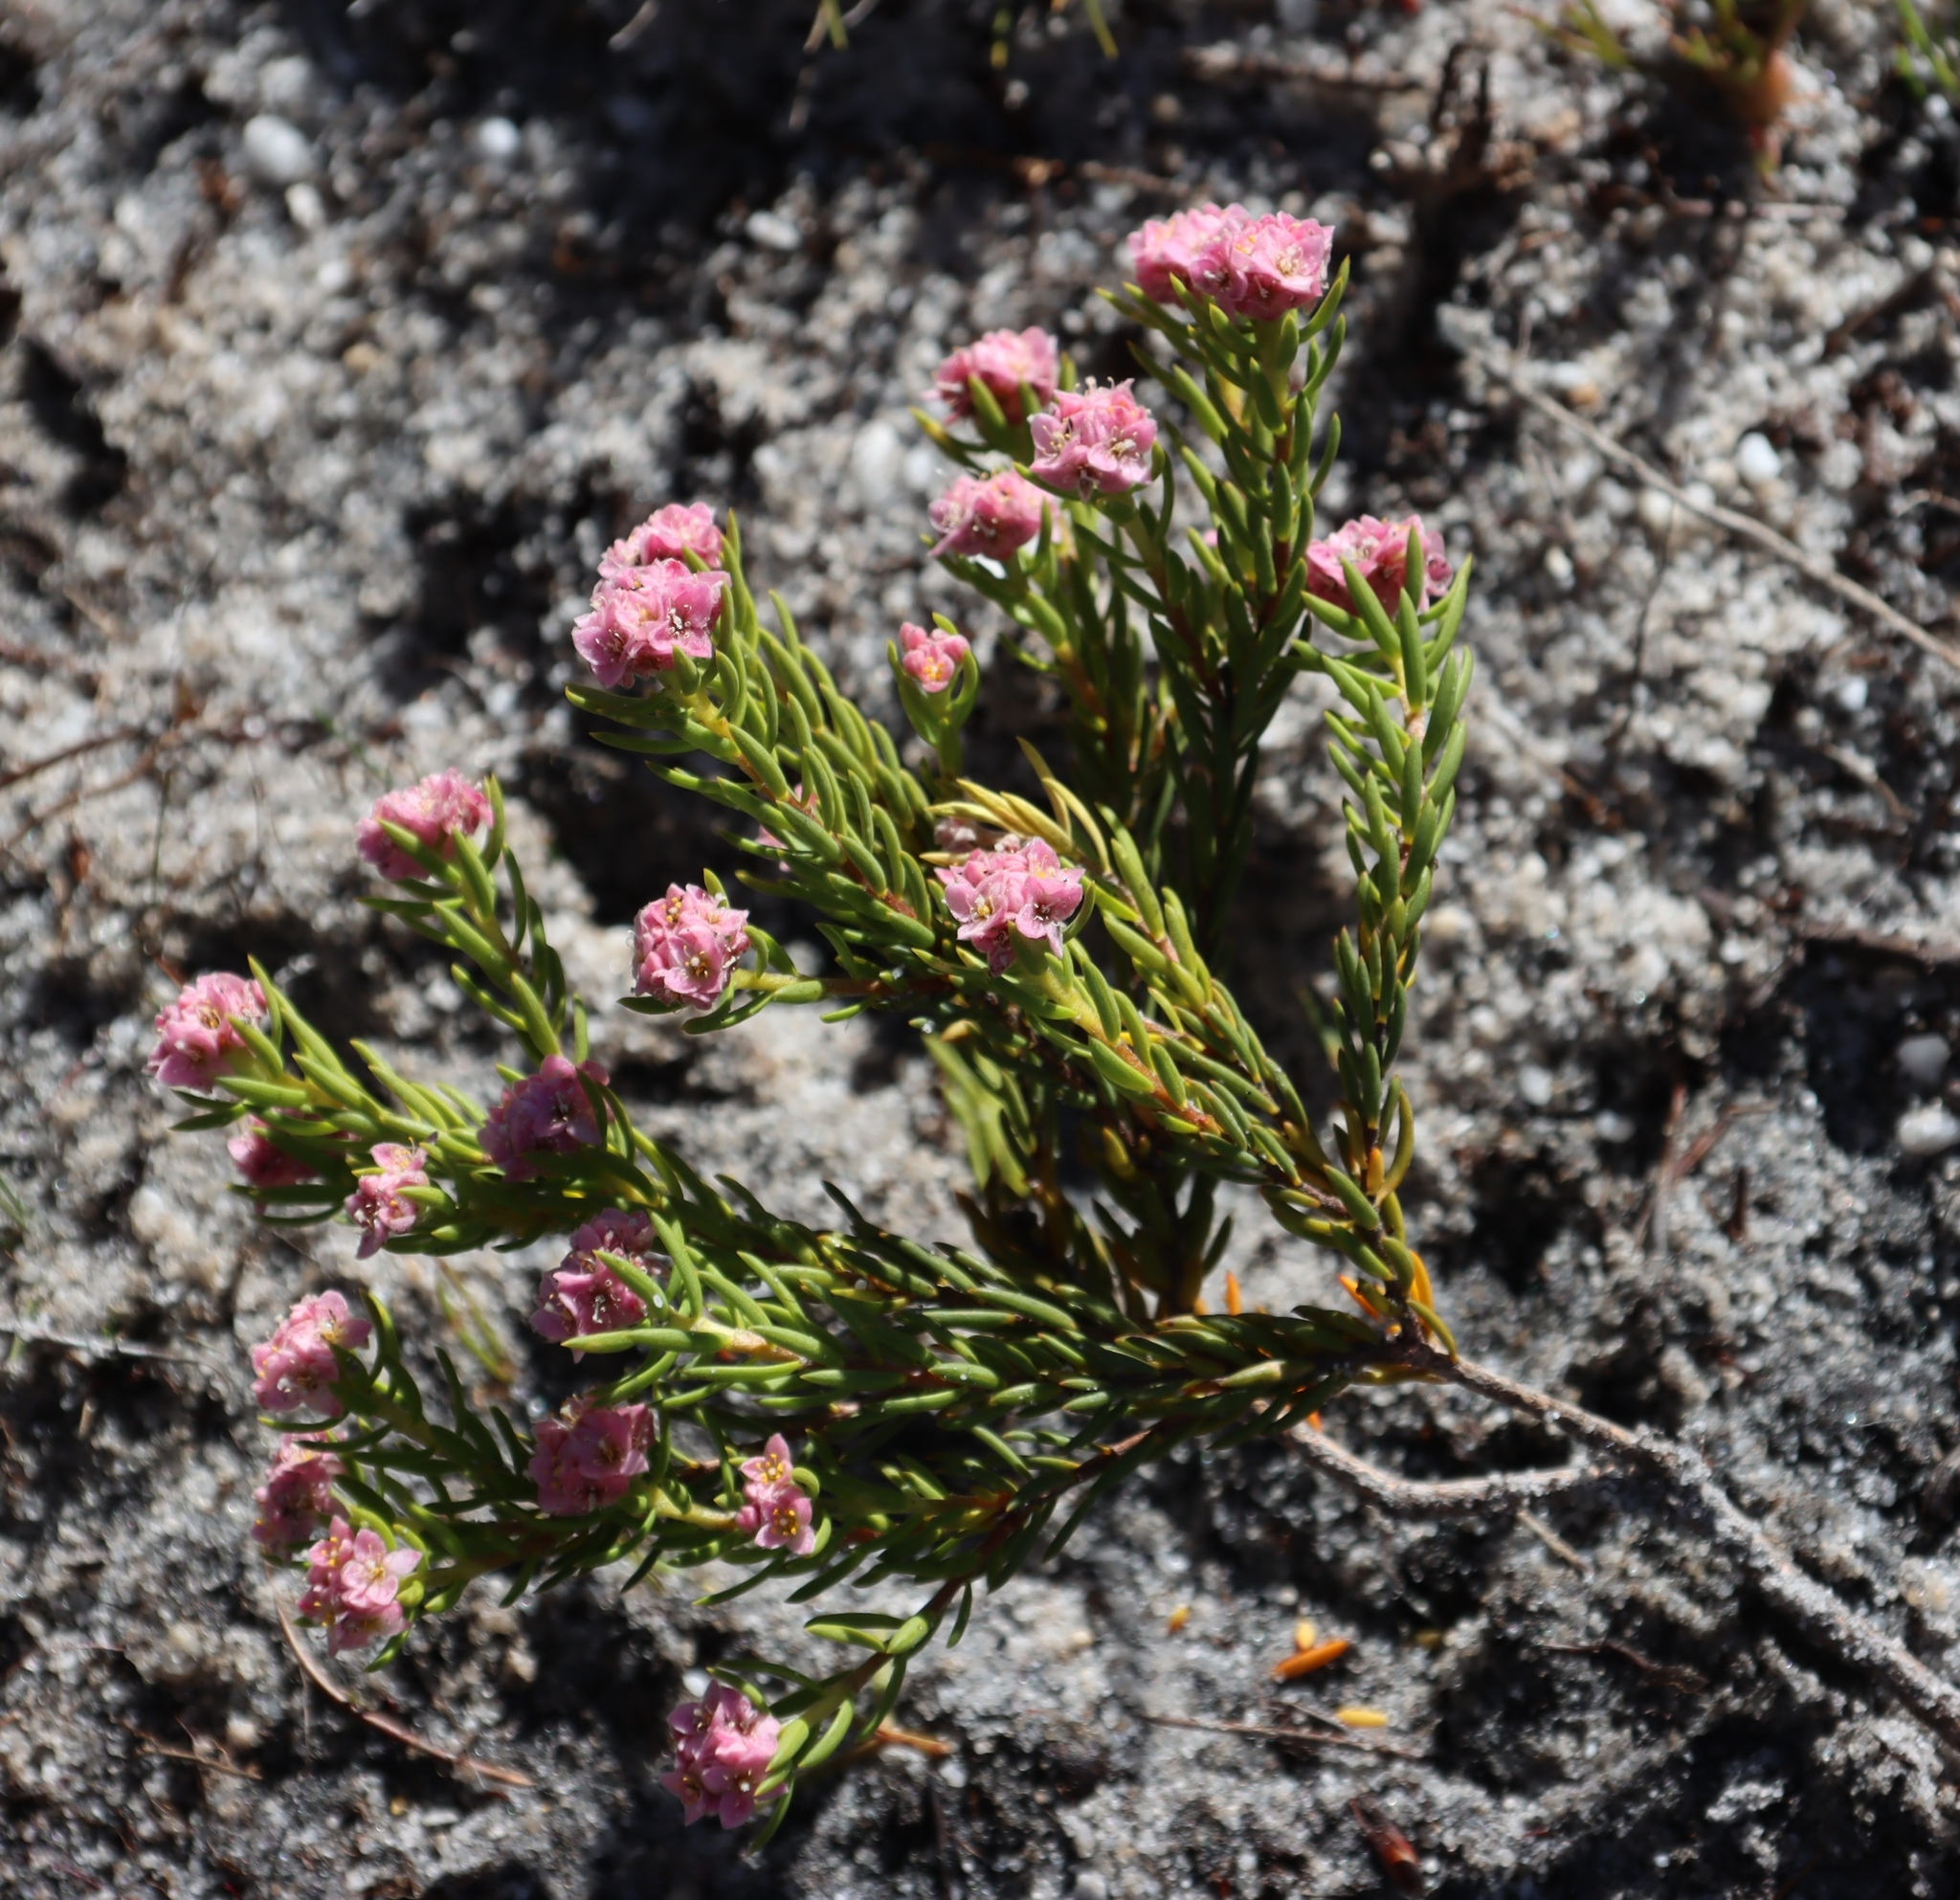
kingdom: Plantae
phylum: Tracheophyta
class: Magnoliopsida
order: Malvales
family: Thymelaeaceae
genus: Lachnaea
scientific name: Lachnaea densiflora
